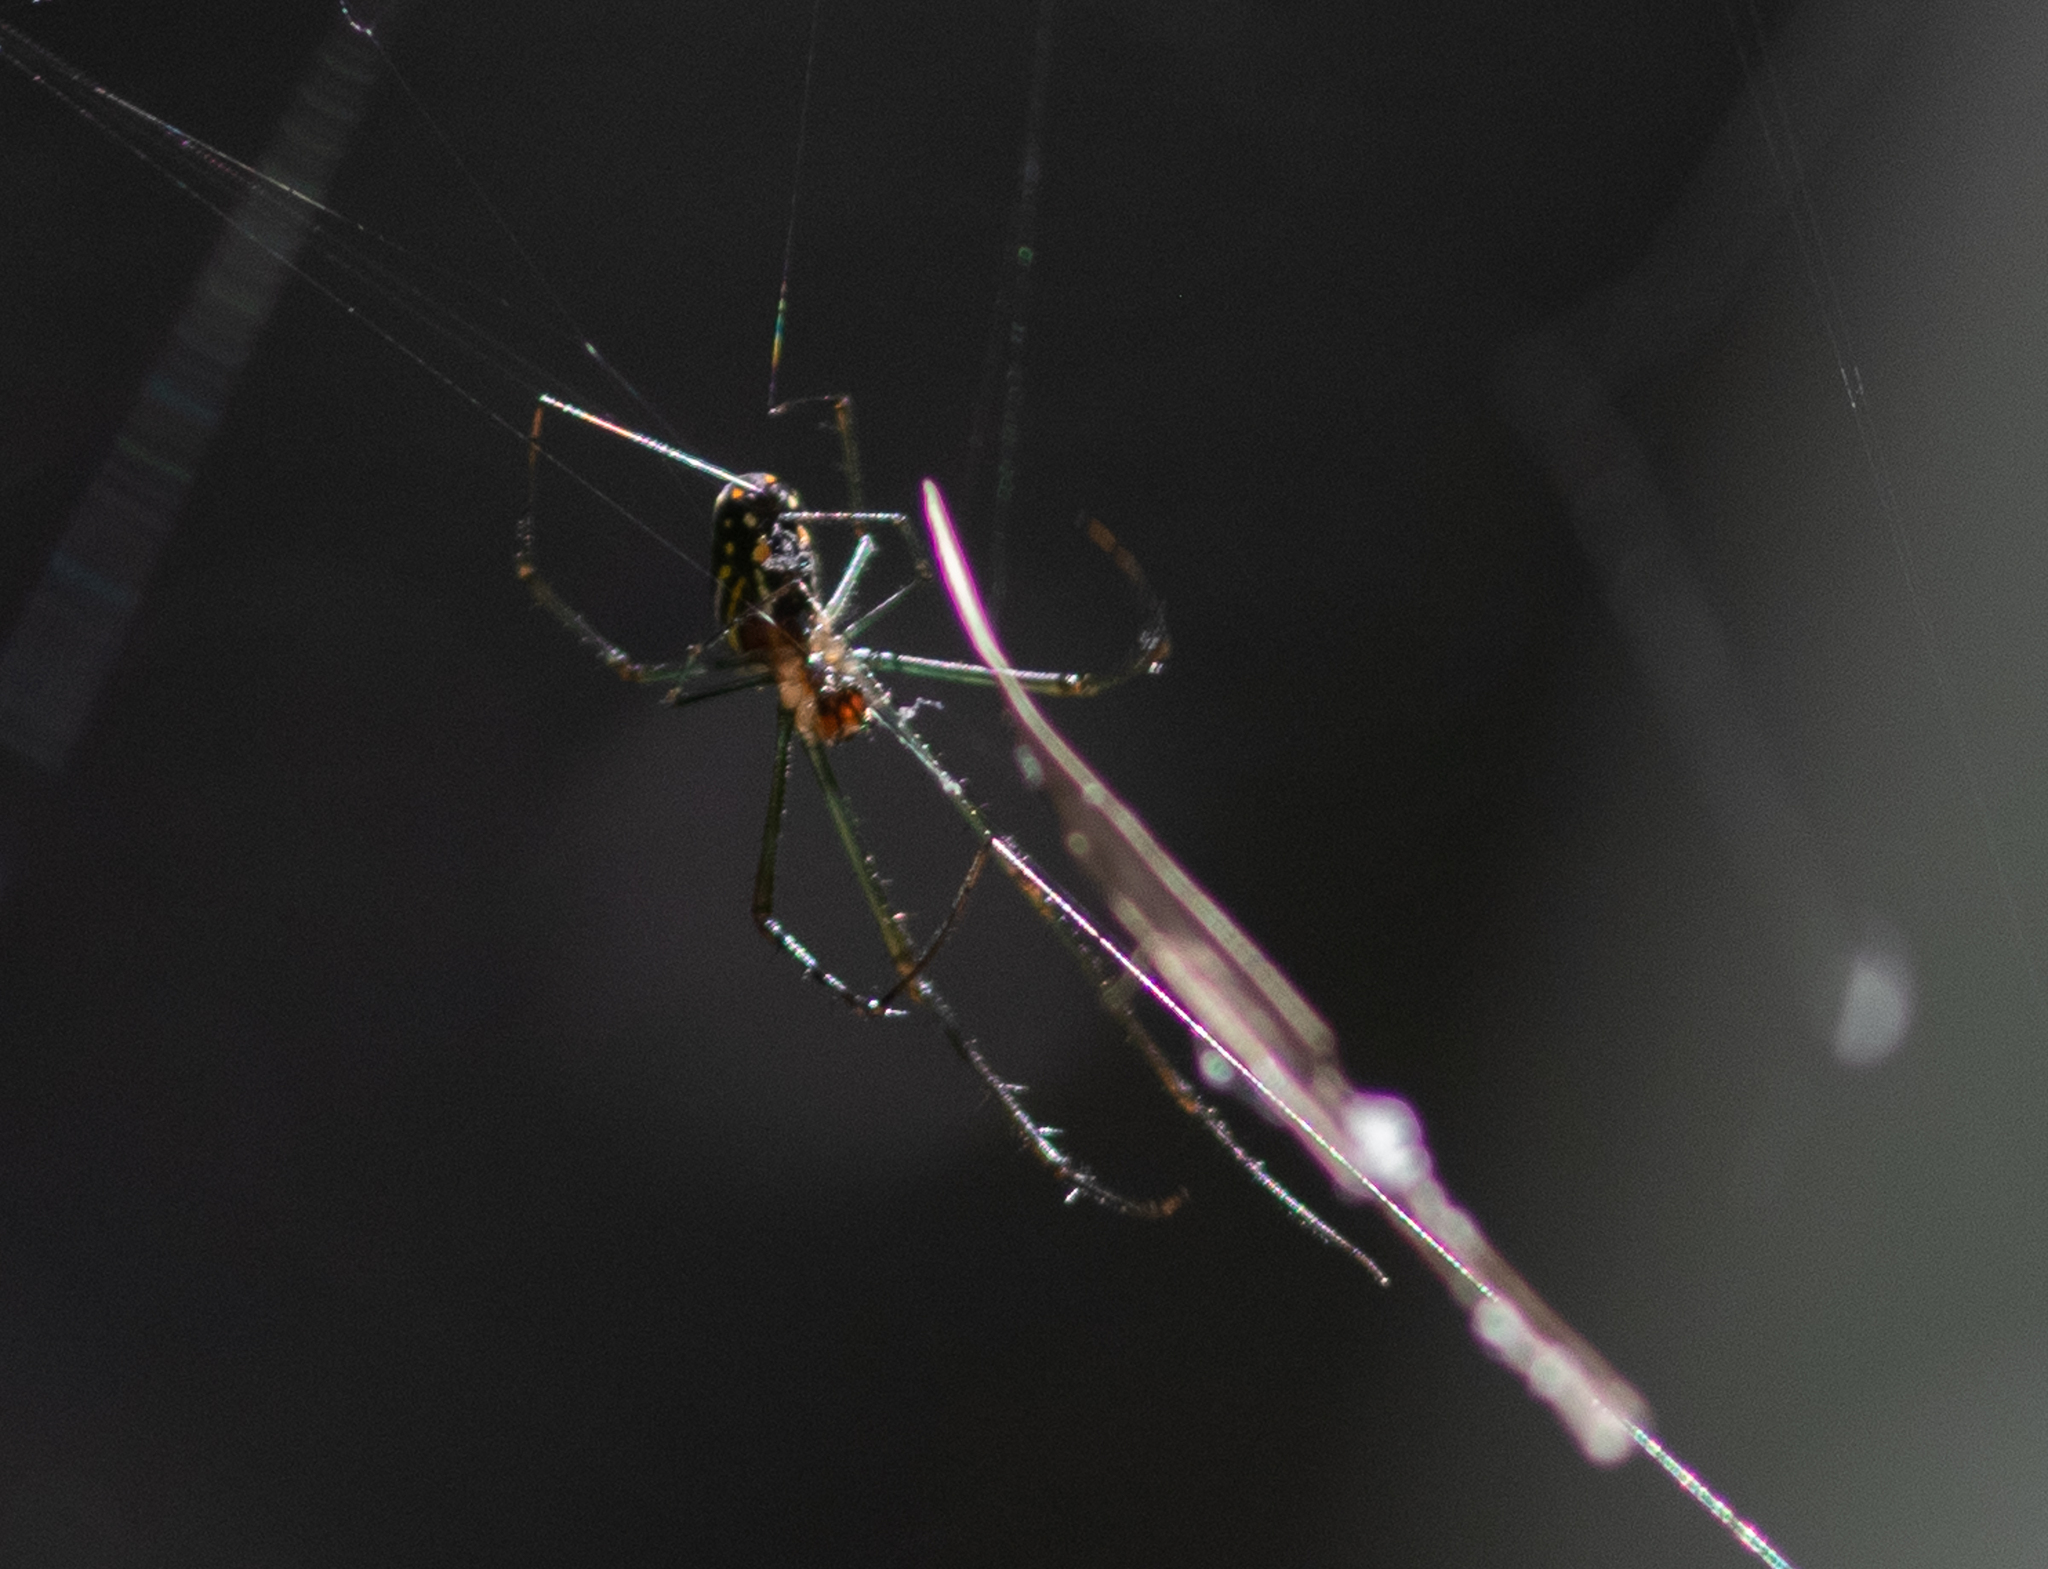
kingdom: Animalia
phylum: Arthropoda
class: Arachnida
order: Araneae
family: Tetragnathidae
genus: Leucauge
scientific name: Leucauge argyra
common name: Longjawed orb weavers
